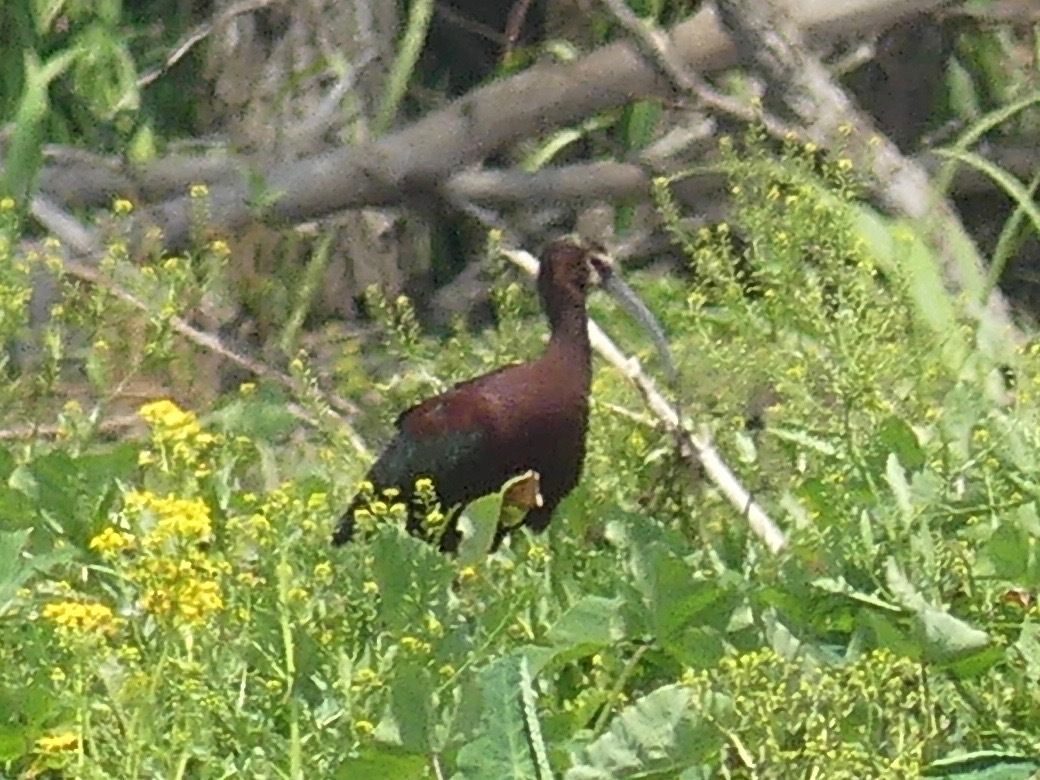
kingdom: Animalia
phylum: Chordata
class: Aves
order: Pelecaniformes
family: Threskiornithidae
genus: Plegadis
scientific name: Plegadis chihi
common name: White-faced ibis
